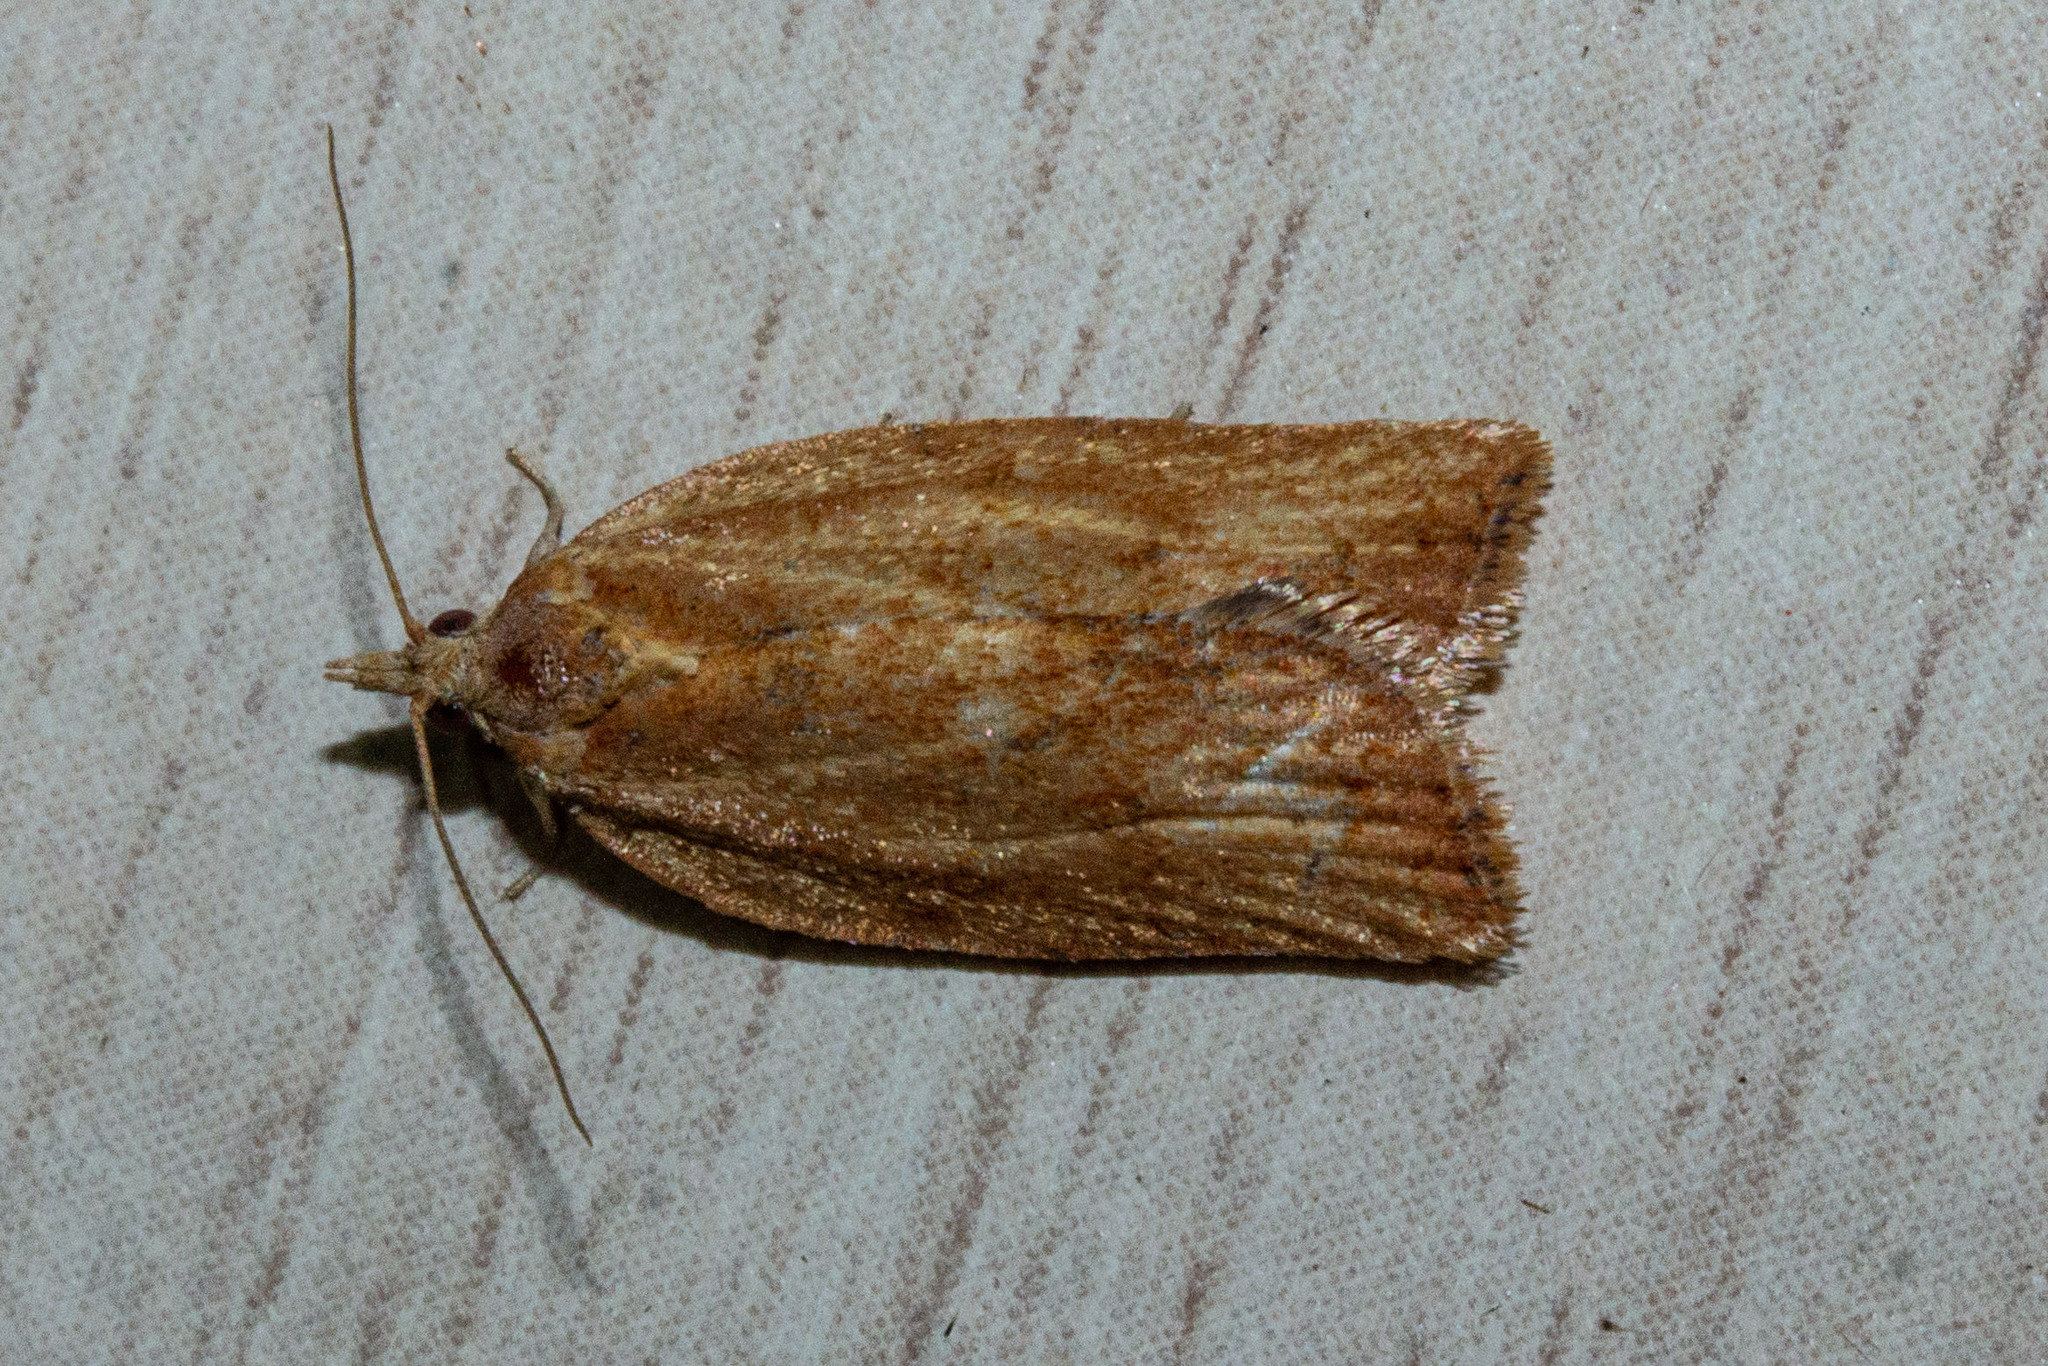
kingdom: Animalia
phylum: Arthropoda
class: Insecta
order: Lepidoptera
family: Tortricidae
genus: Epiphyas
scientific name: Epiphyas postvittana
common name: Light brown apple moth
